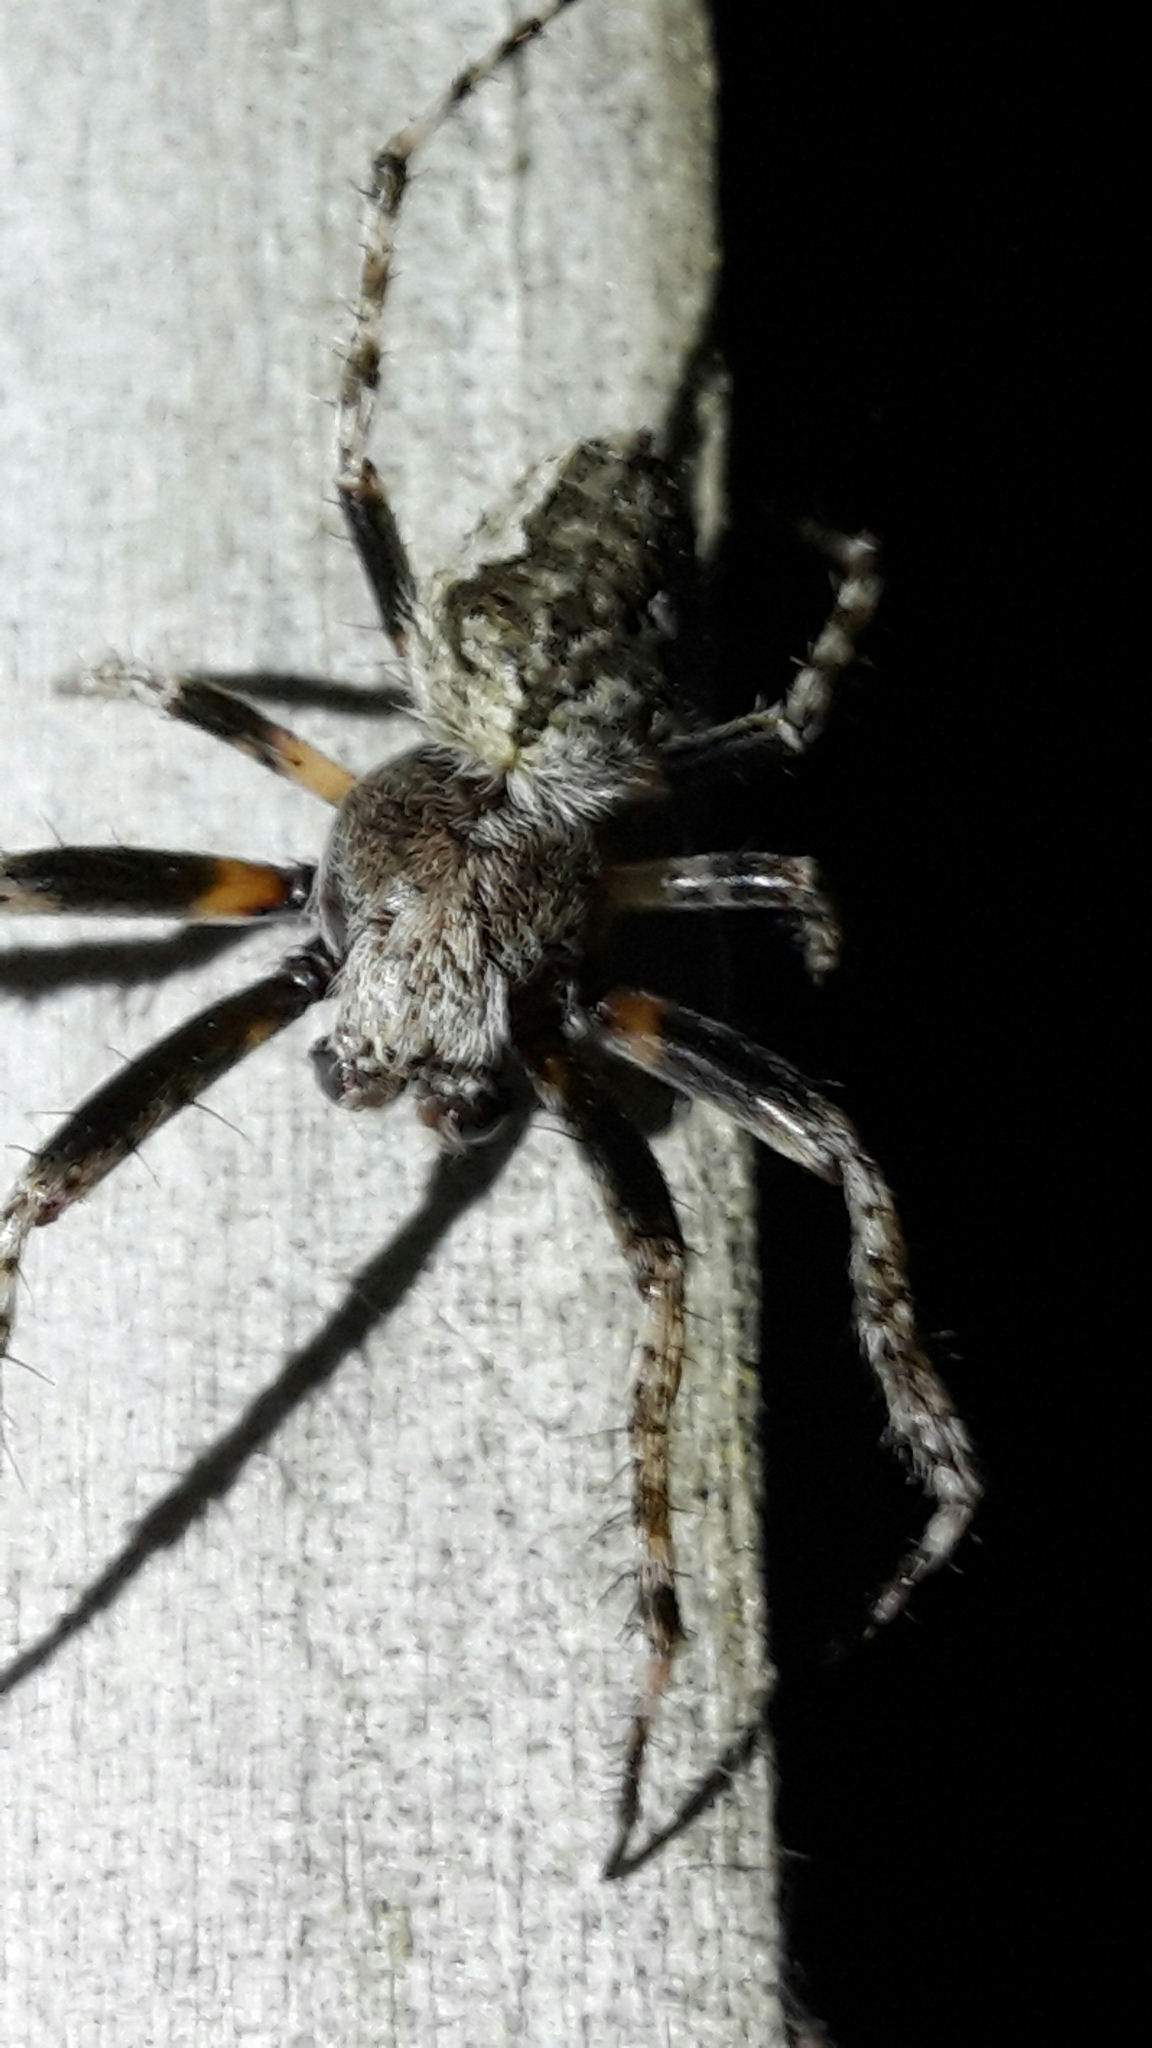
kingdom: Animalia
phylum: Arthropoda
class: Arachnida
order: Araneae
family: Araneidae
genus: Eriophora
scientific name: Eriophora pustulosa
